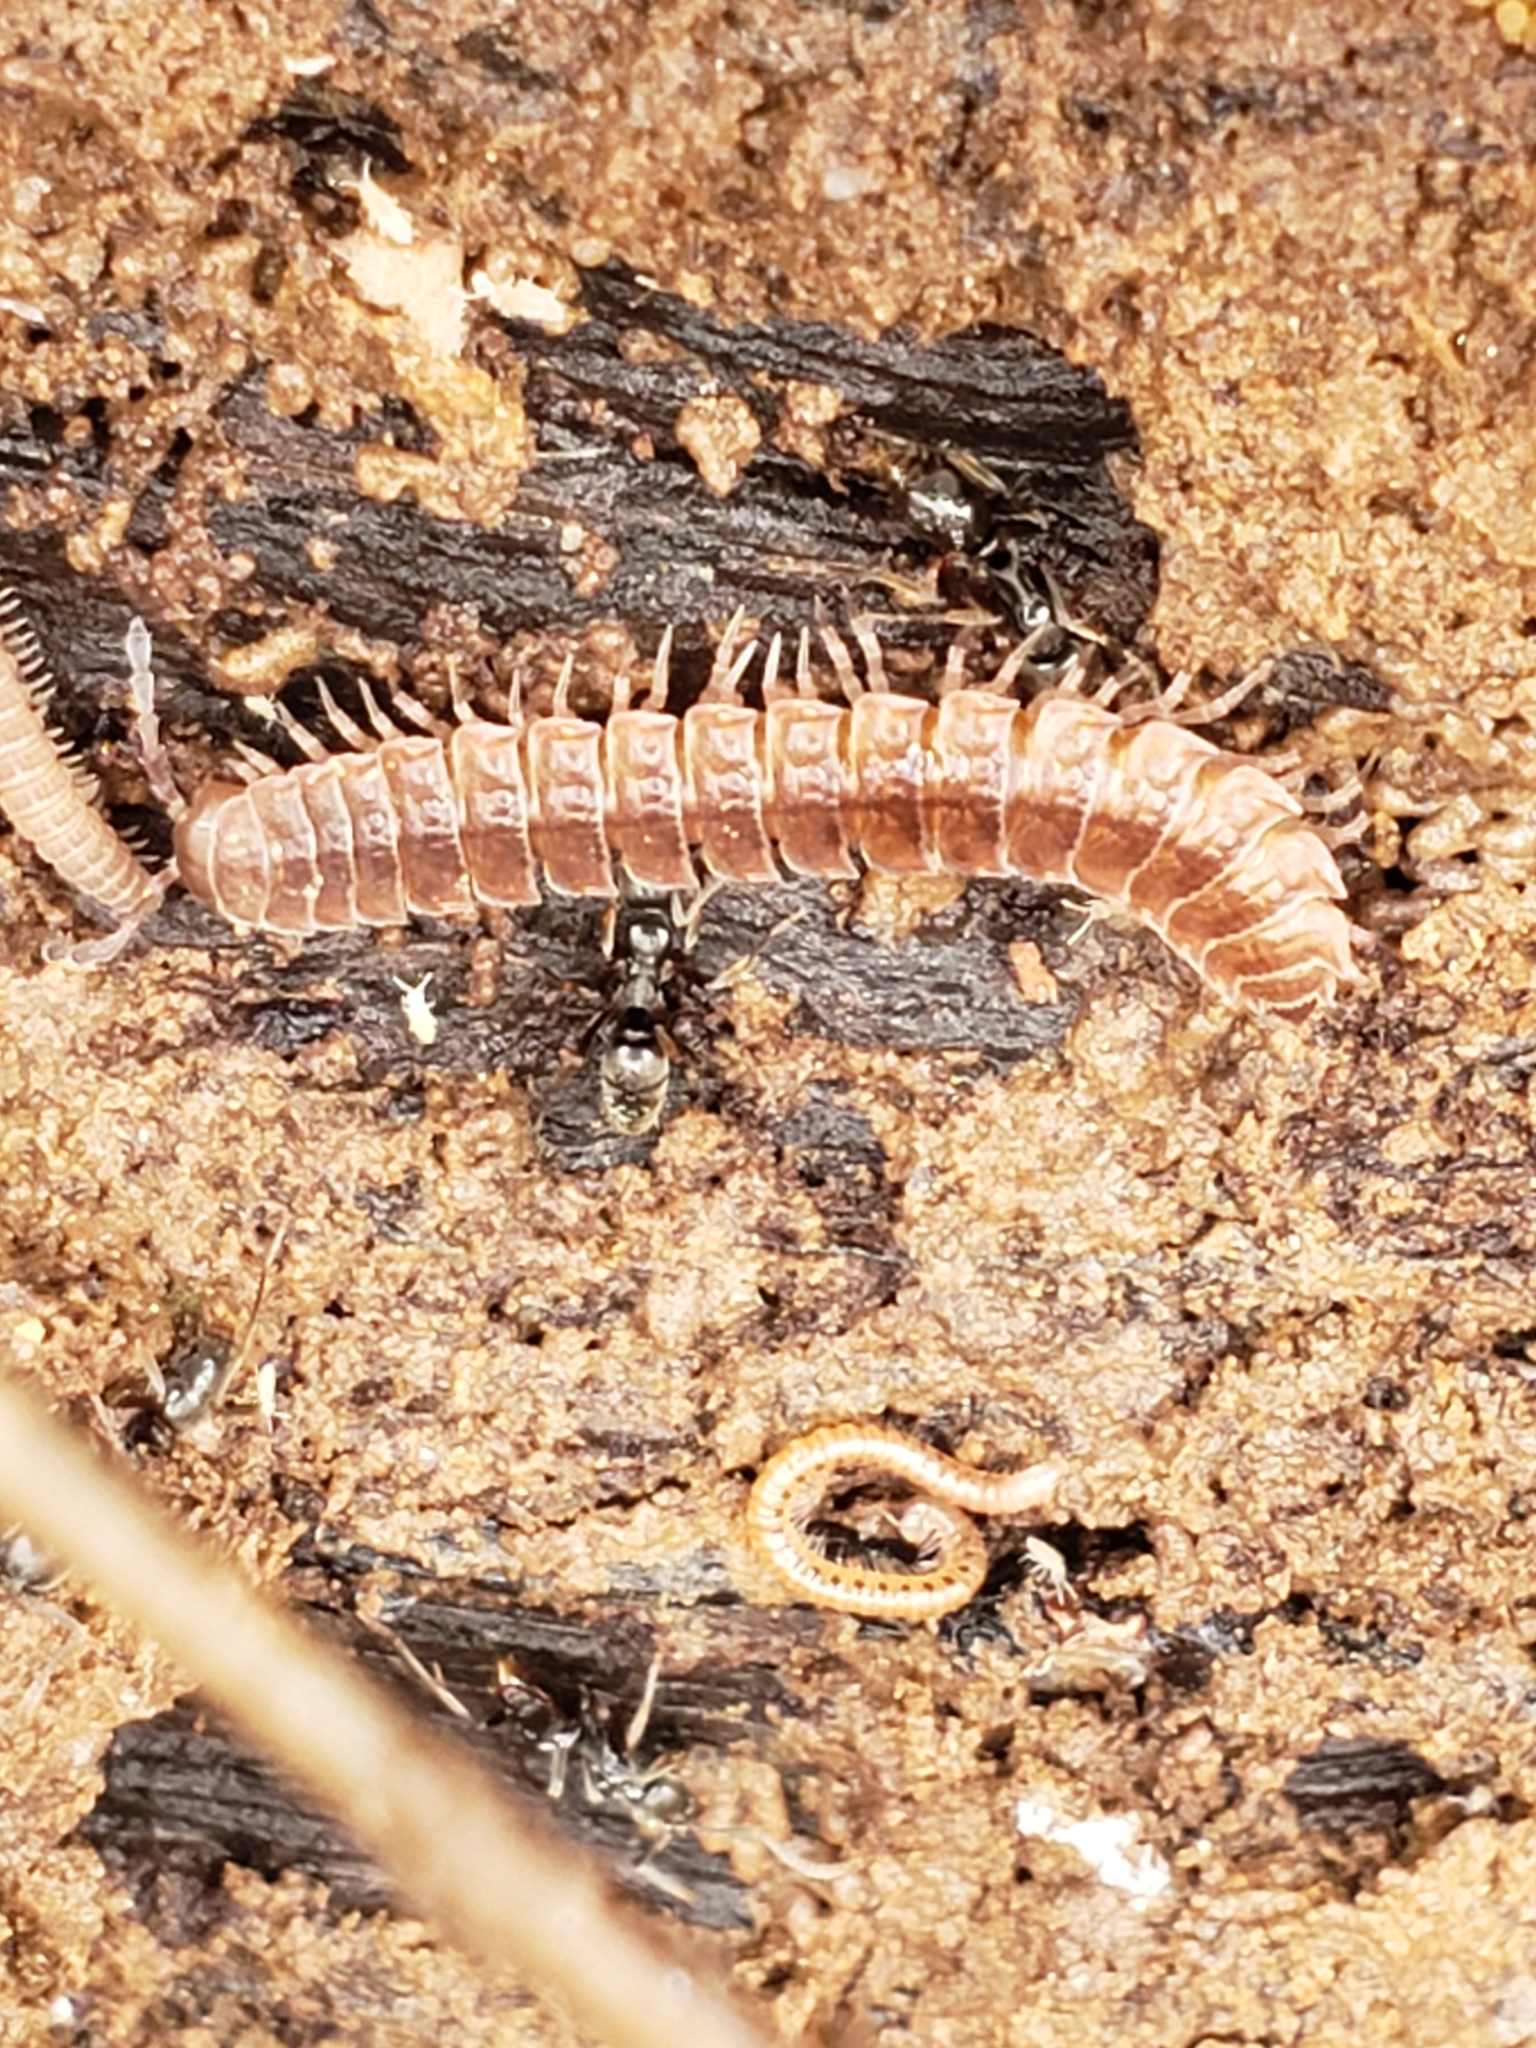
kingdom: Animalia
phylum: Arthropoda
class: Diplopoda
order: Polydesmida
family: Polydesmidae
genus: Pseudopolydesmus
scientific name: Pseudopolydesmus serratus
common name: Common pink flat-back millipede
